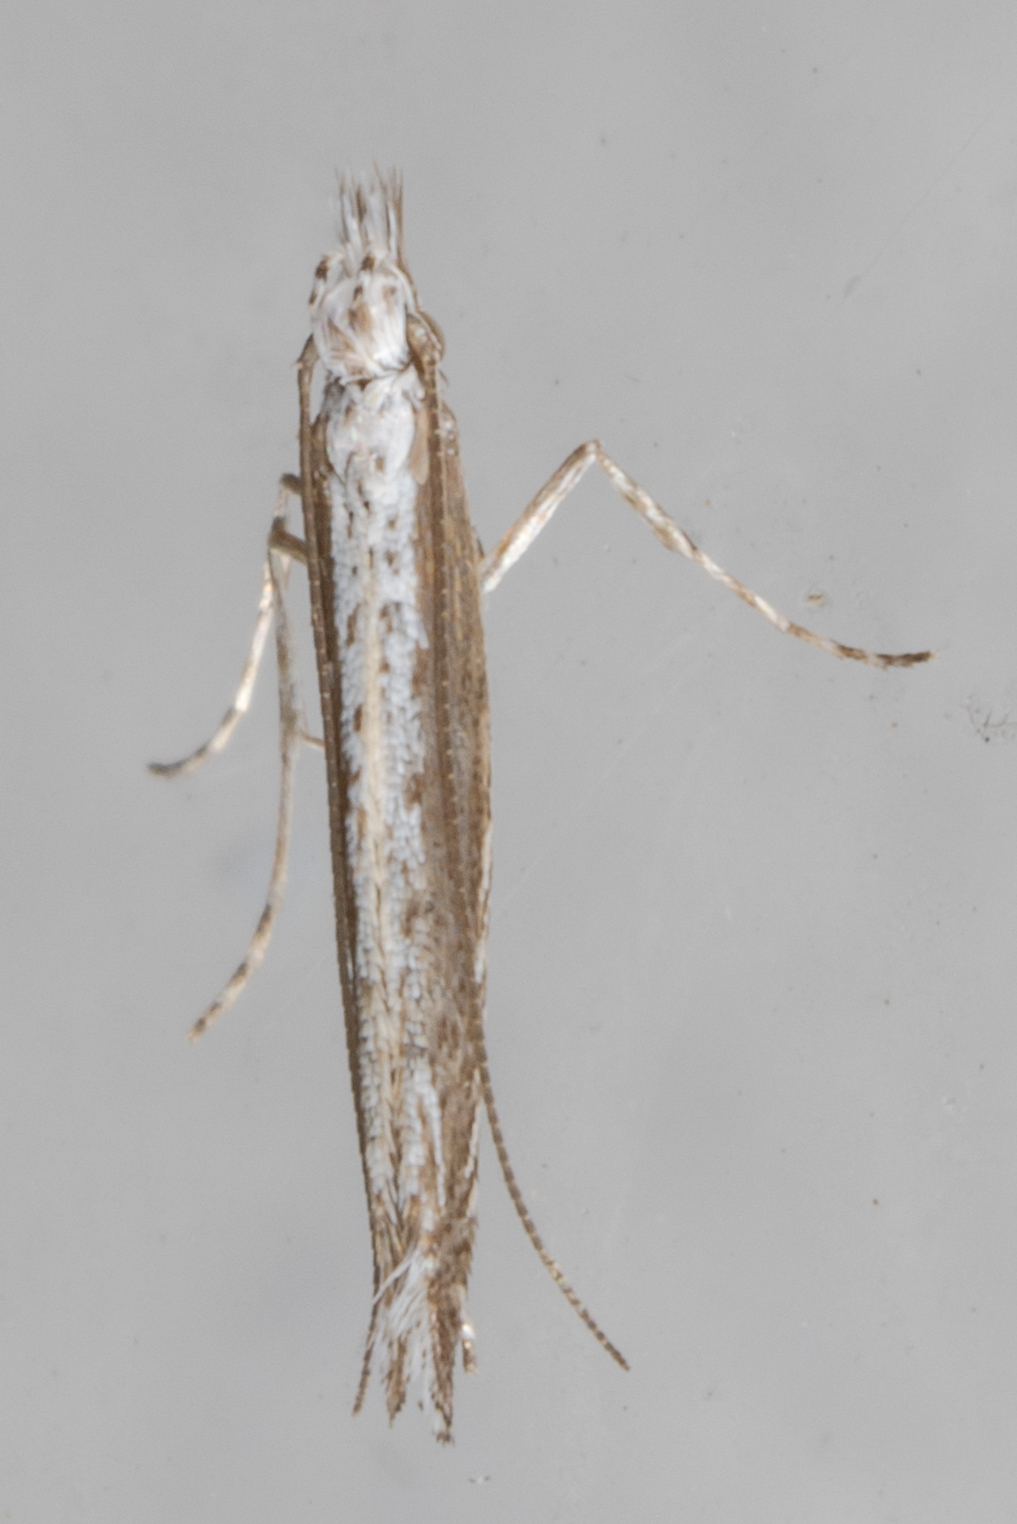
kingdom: Plantae
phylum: Rhodophyta
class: Florideophyceae
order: Gracilariales
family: Gracilariaceae
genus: Gracilaria
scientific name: Gracilaria
